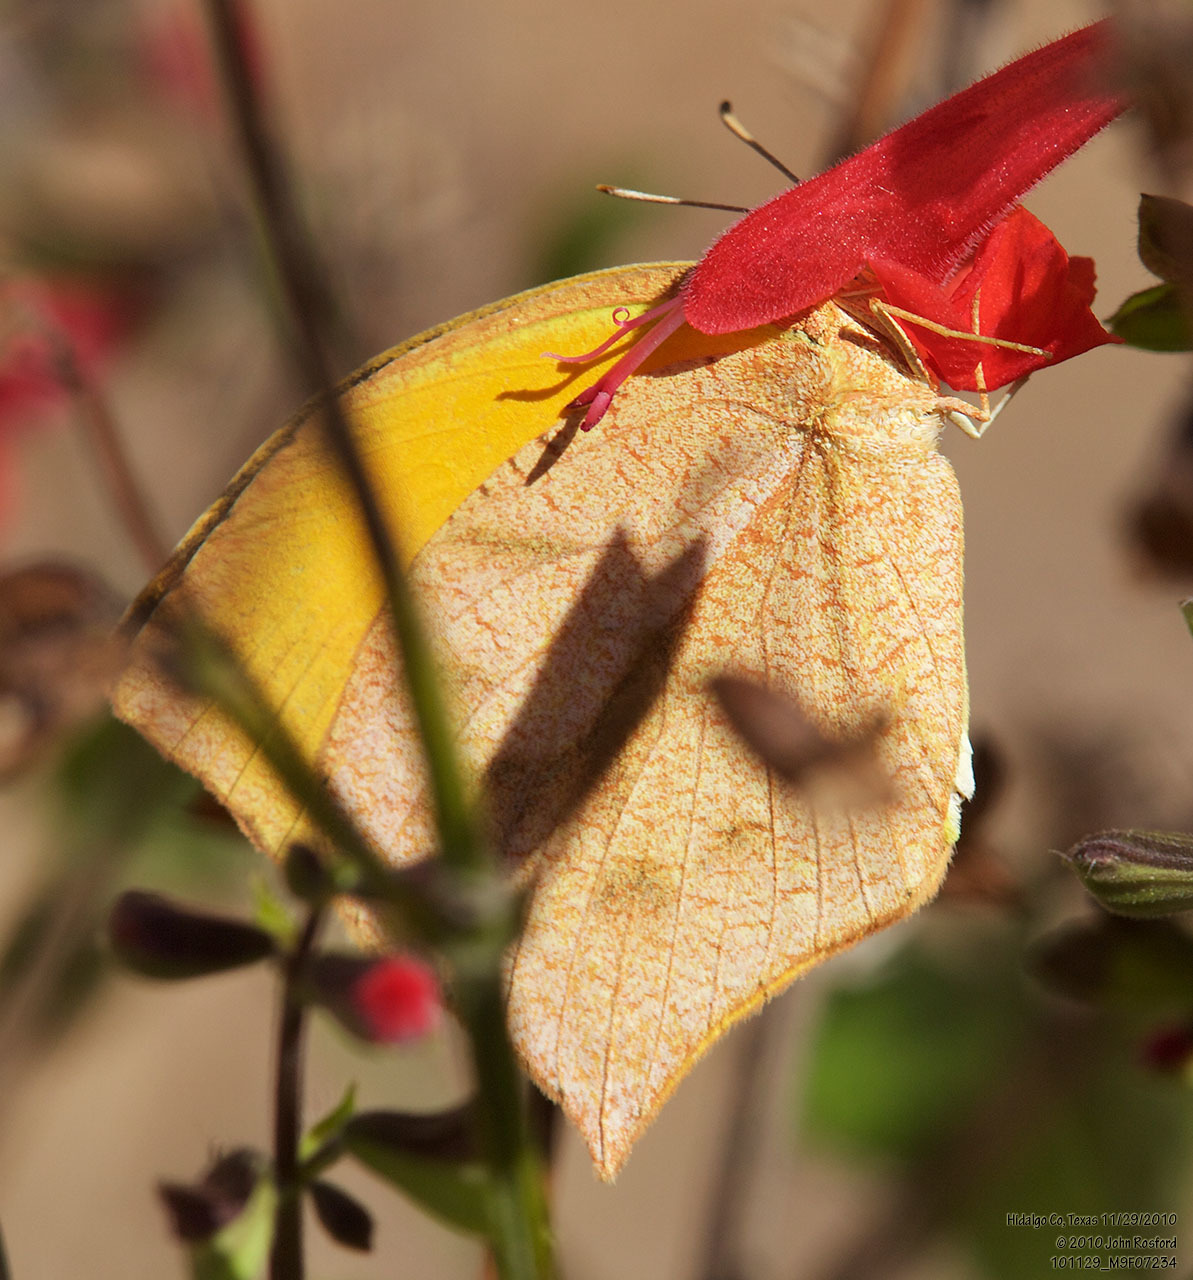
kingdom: Animalia
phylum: Arthropoda
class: Insecta
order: Lepidoptera
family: Pieridae
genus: Pyrisitia
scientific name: Pyrisitia proterpia
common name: Tailed orange
